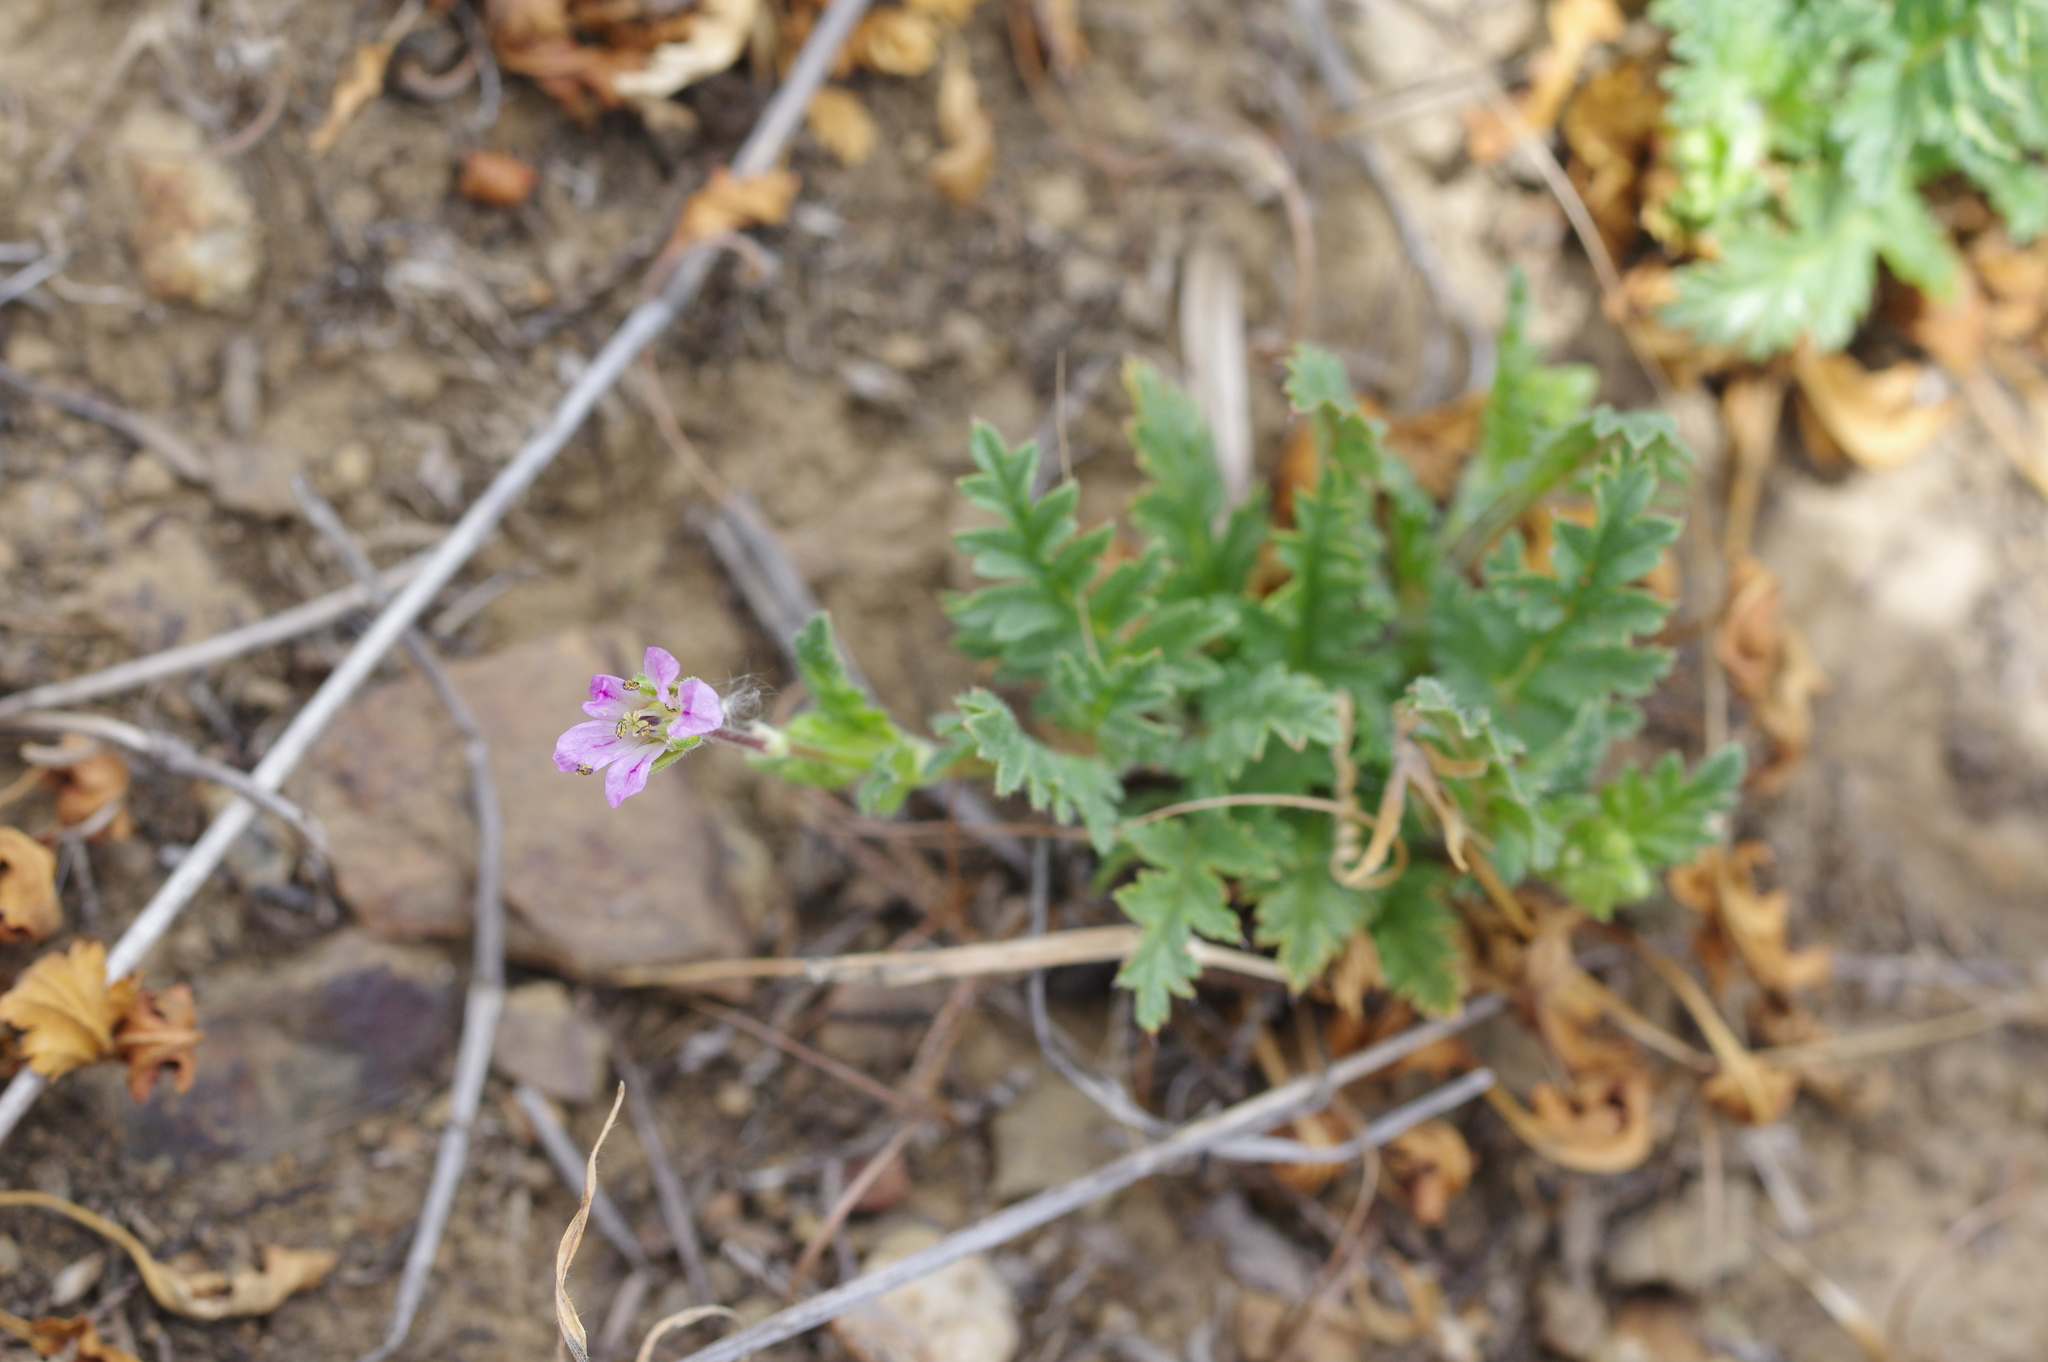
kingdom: Plantae
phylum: Tracheophyta
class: Magnoliopsida
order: Geraniales
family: Geraniaceae
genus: Erodium
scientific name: Erodium botrys
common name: Mediterranean stork's-bill
